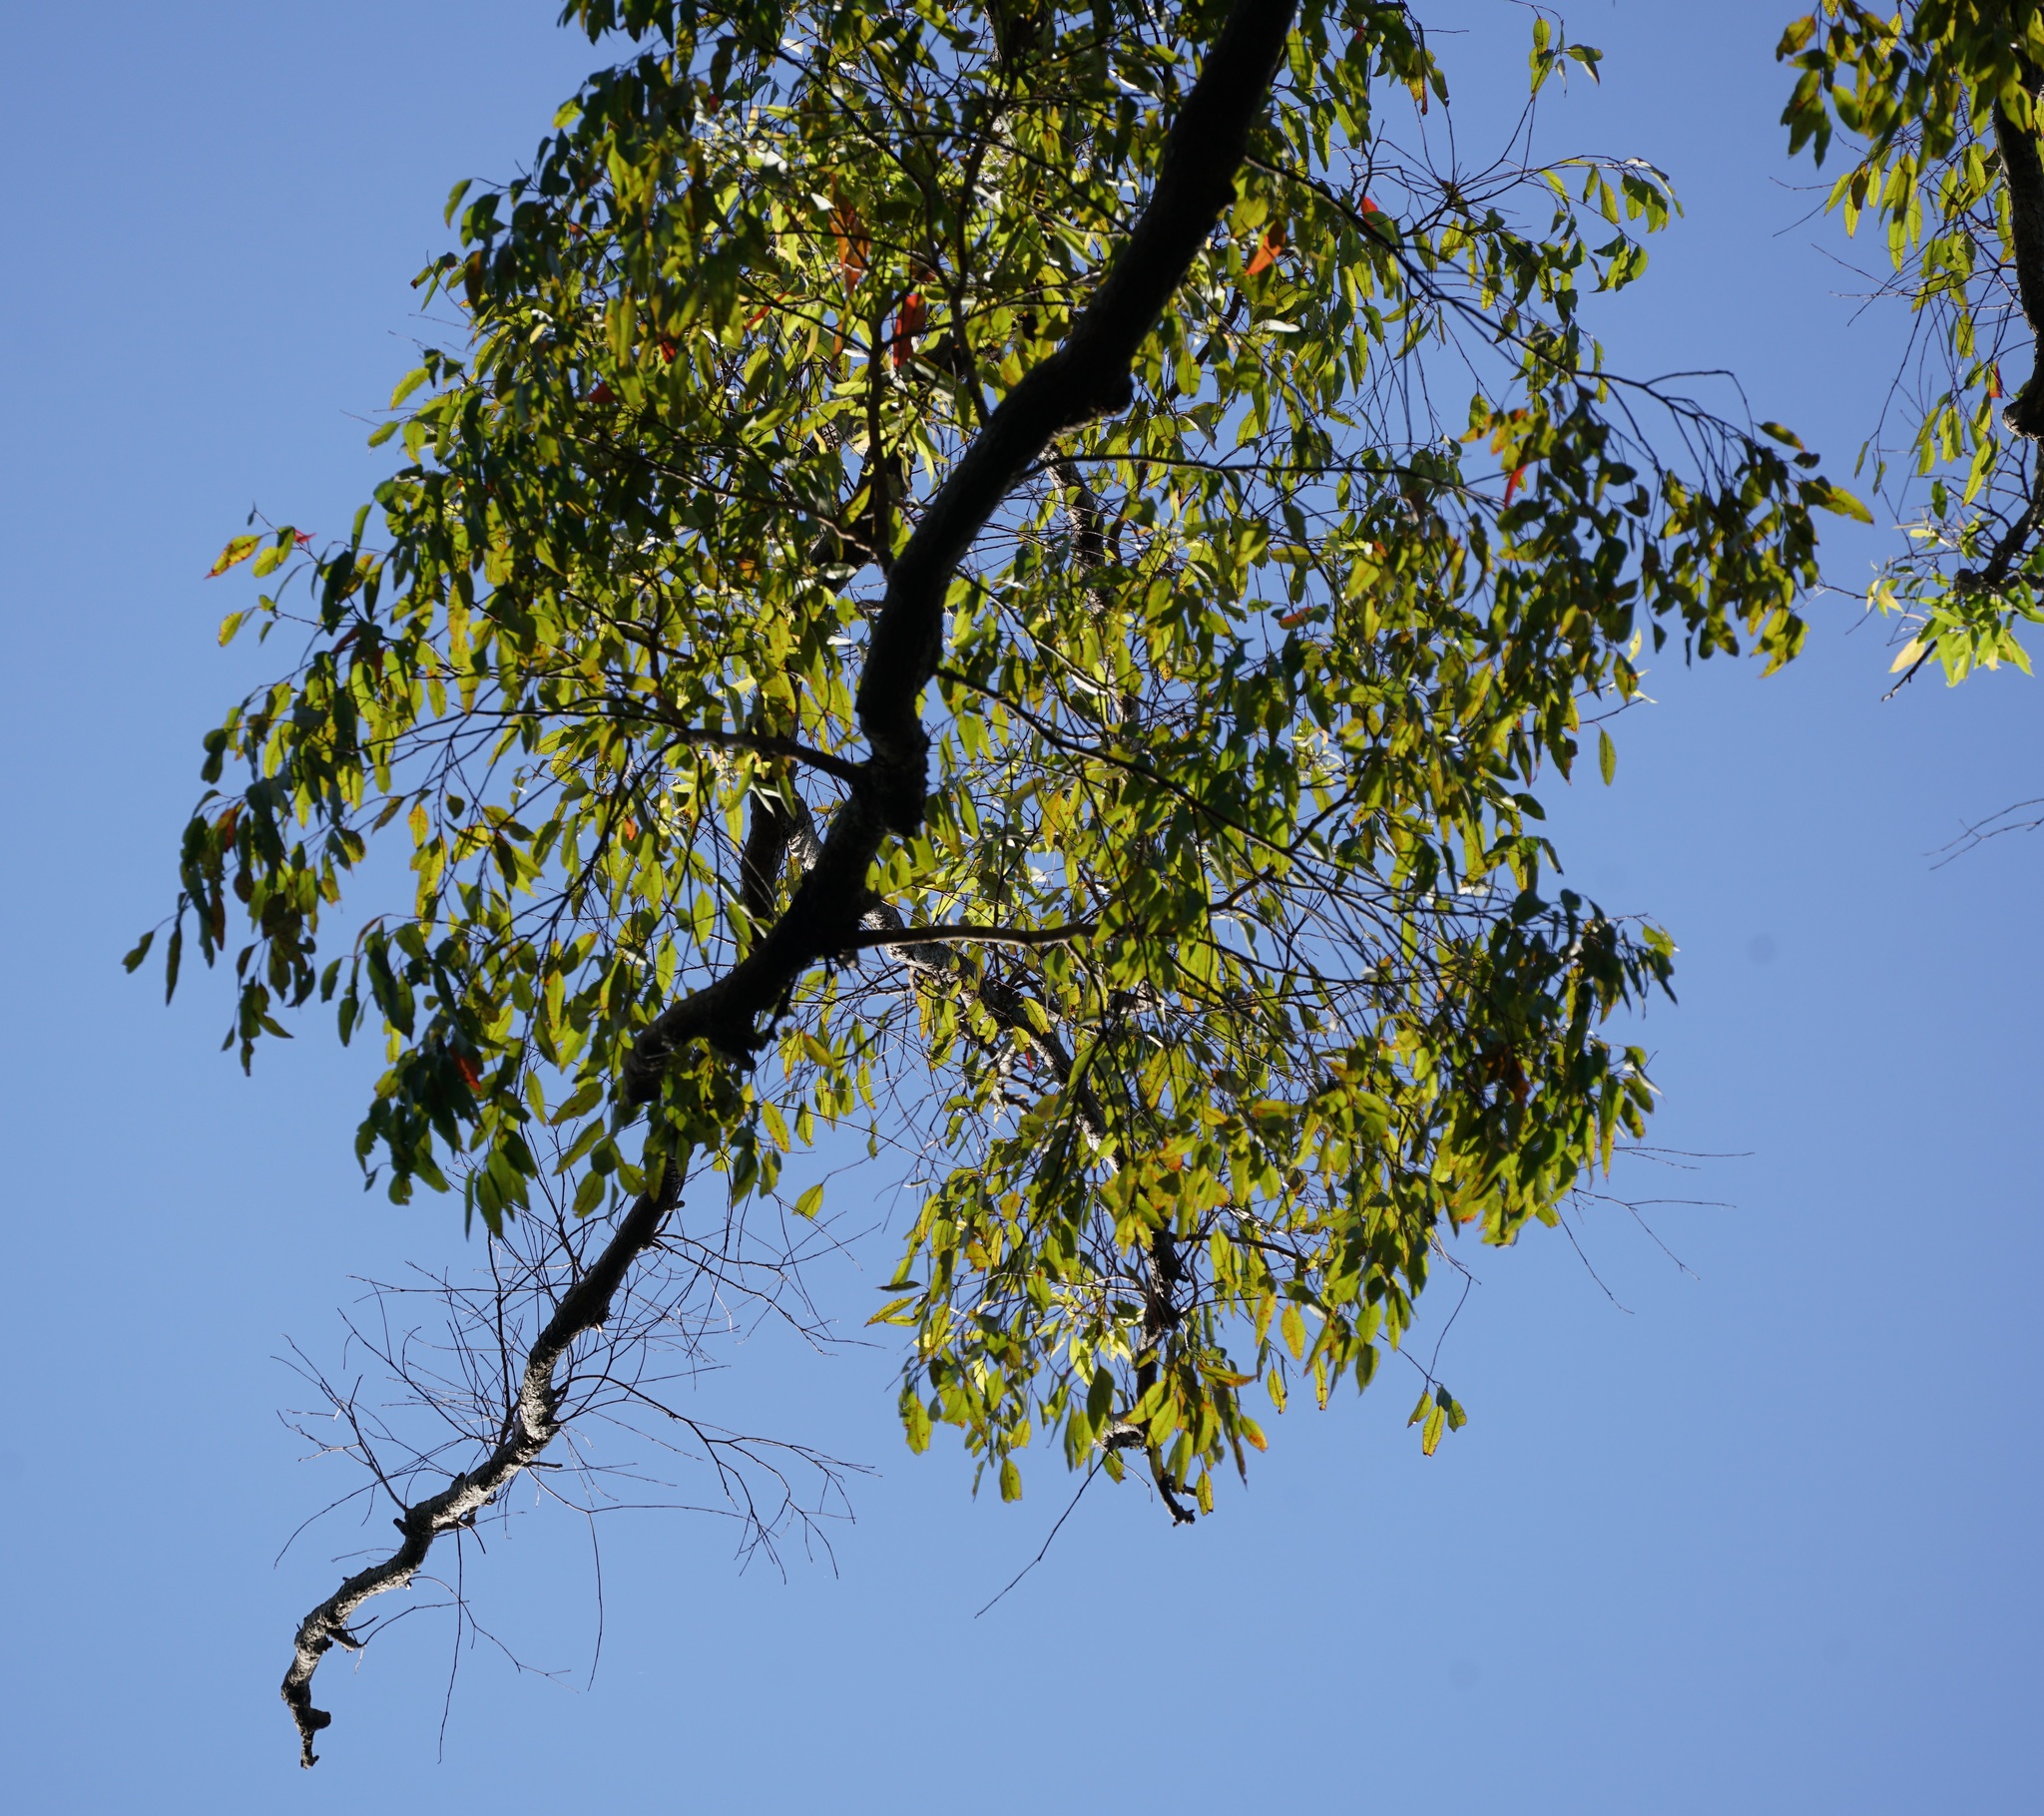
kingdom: Plantae
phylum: Tracheophyta
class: Magnoliopsida
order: Myrtales
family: Myrtaceae
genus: Corymbia
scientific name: Corymbia gummifera
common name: Red bloodwood
